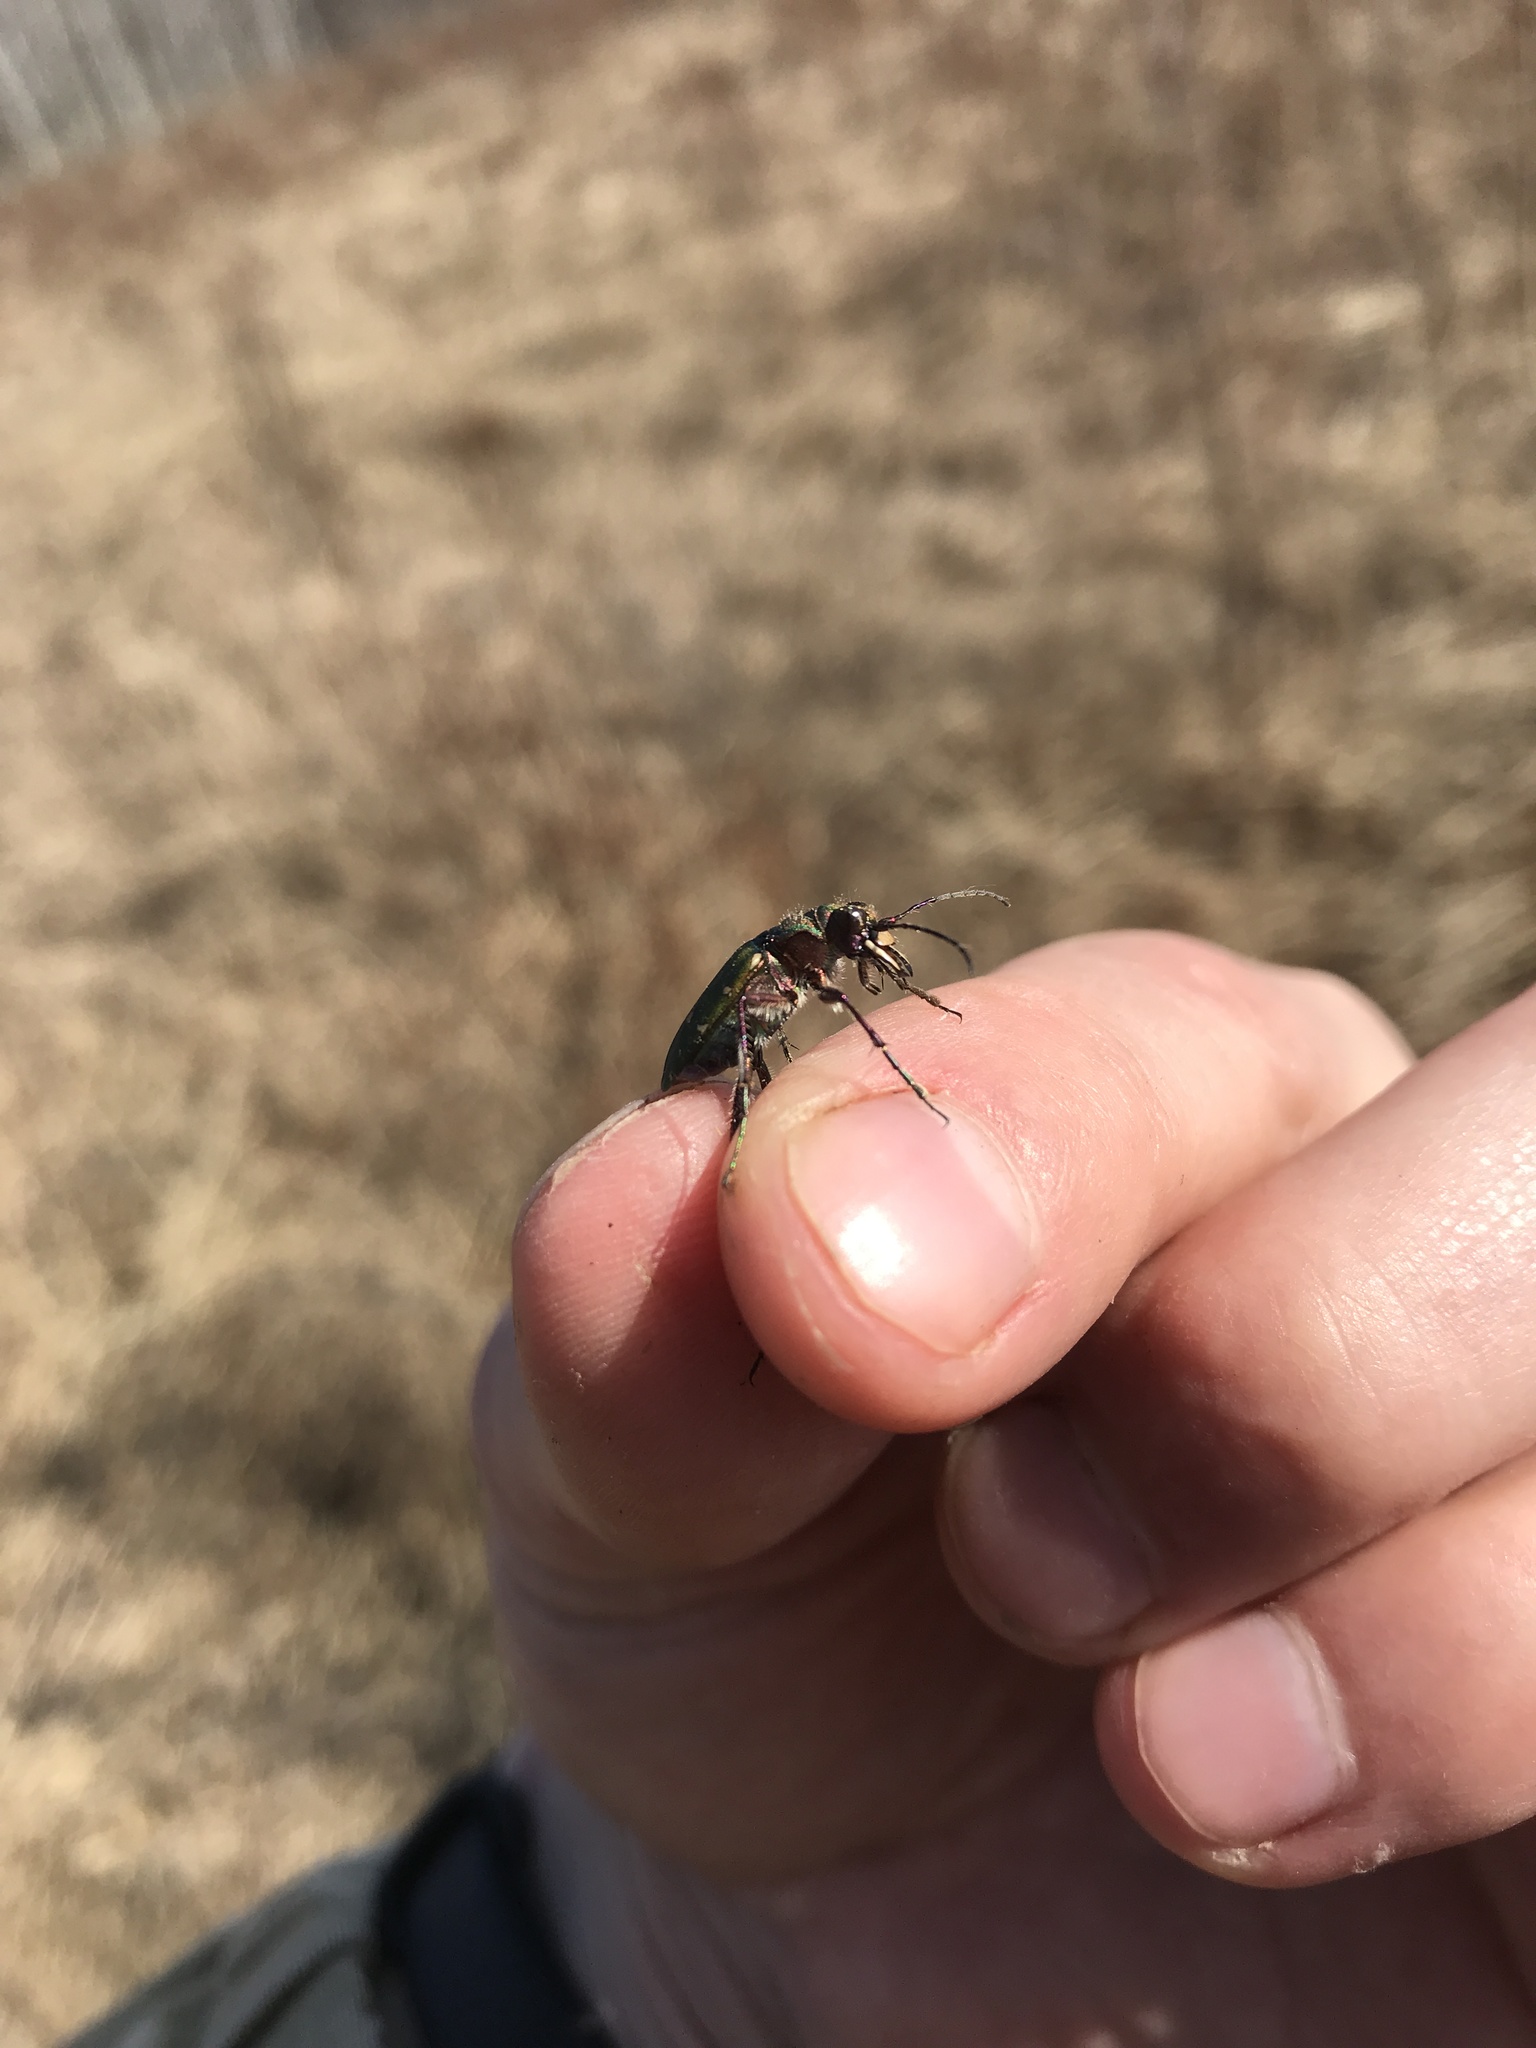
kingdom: Animalia
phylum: Arthropoda
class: Insecta
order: Coleoptera
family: Carabidae
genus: Cicindela
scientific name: Cicindela campestris
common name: Common tiger beetle
